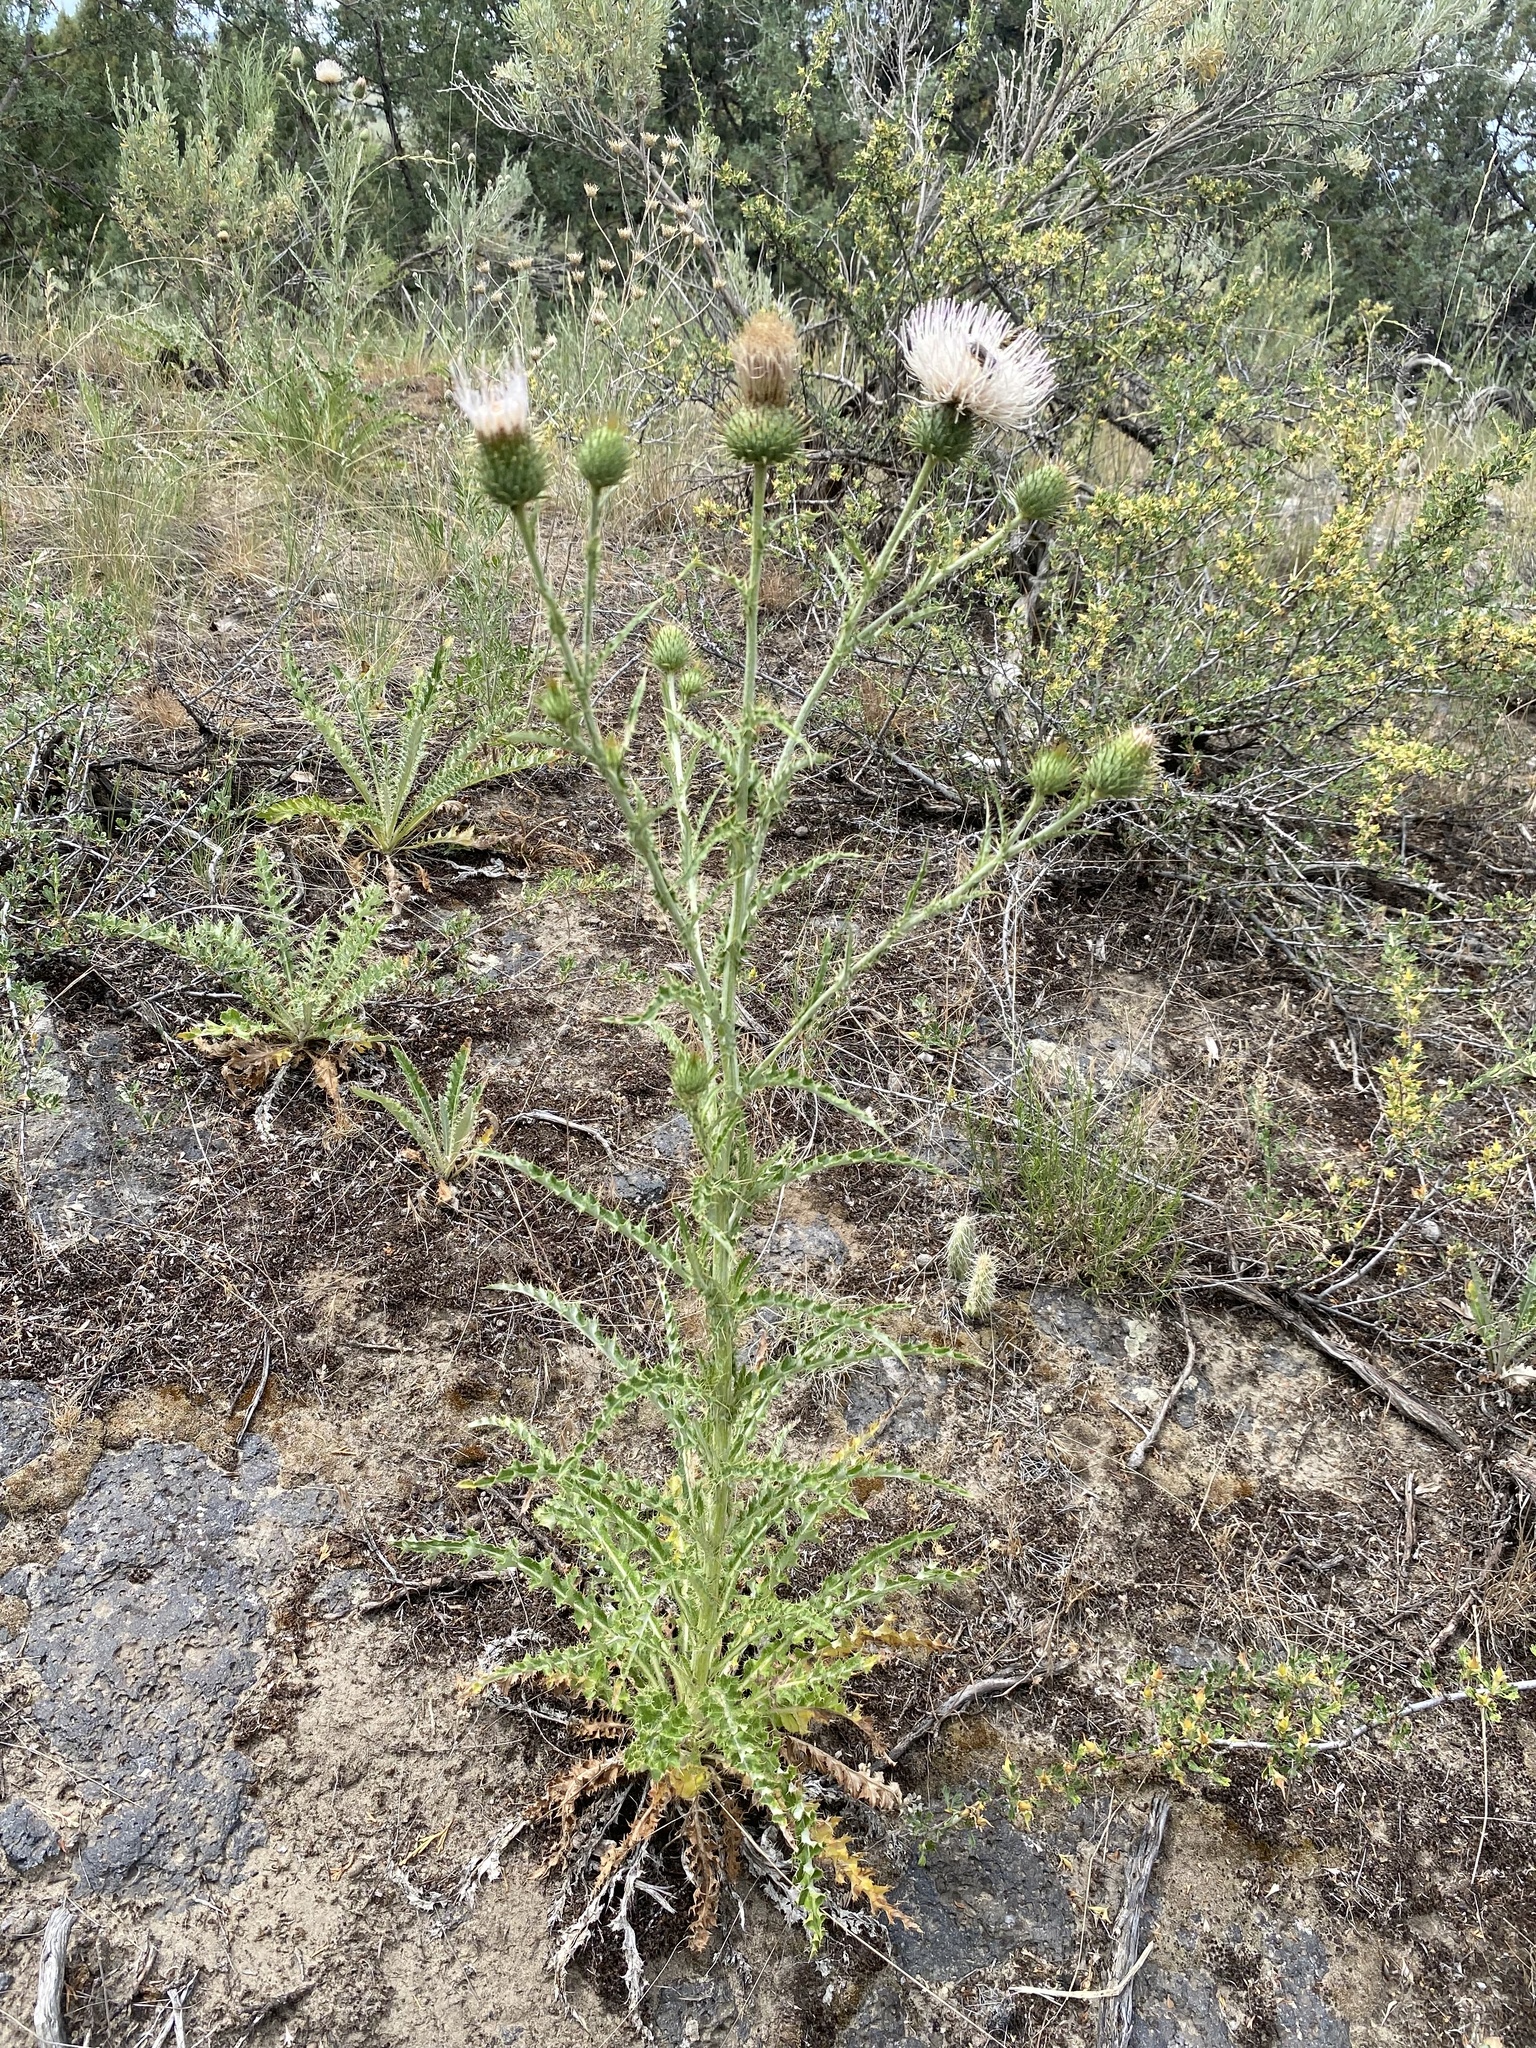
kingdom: Plantae
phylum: Tracheophyta
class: Magnoliopsida
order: Asterales
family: Asteraceae
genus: Cirsium
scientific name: Cirsium inamoenum
